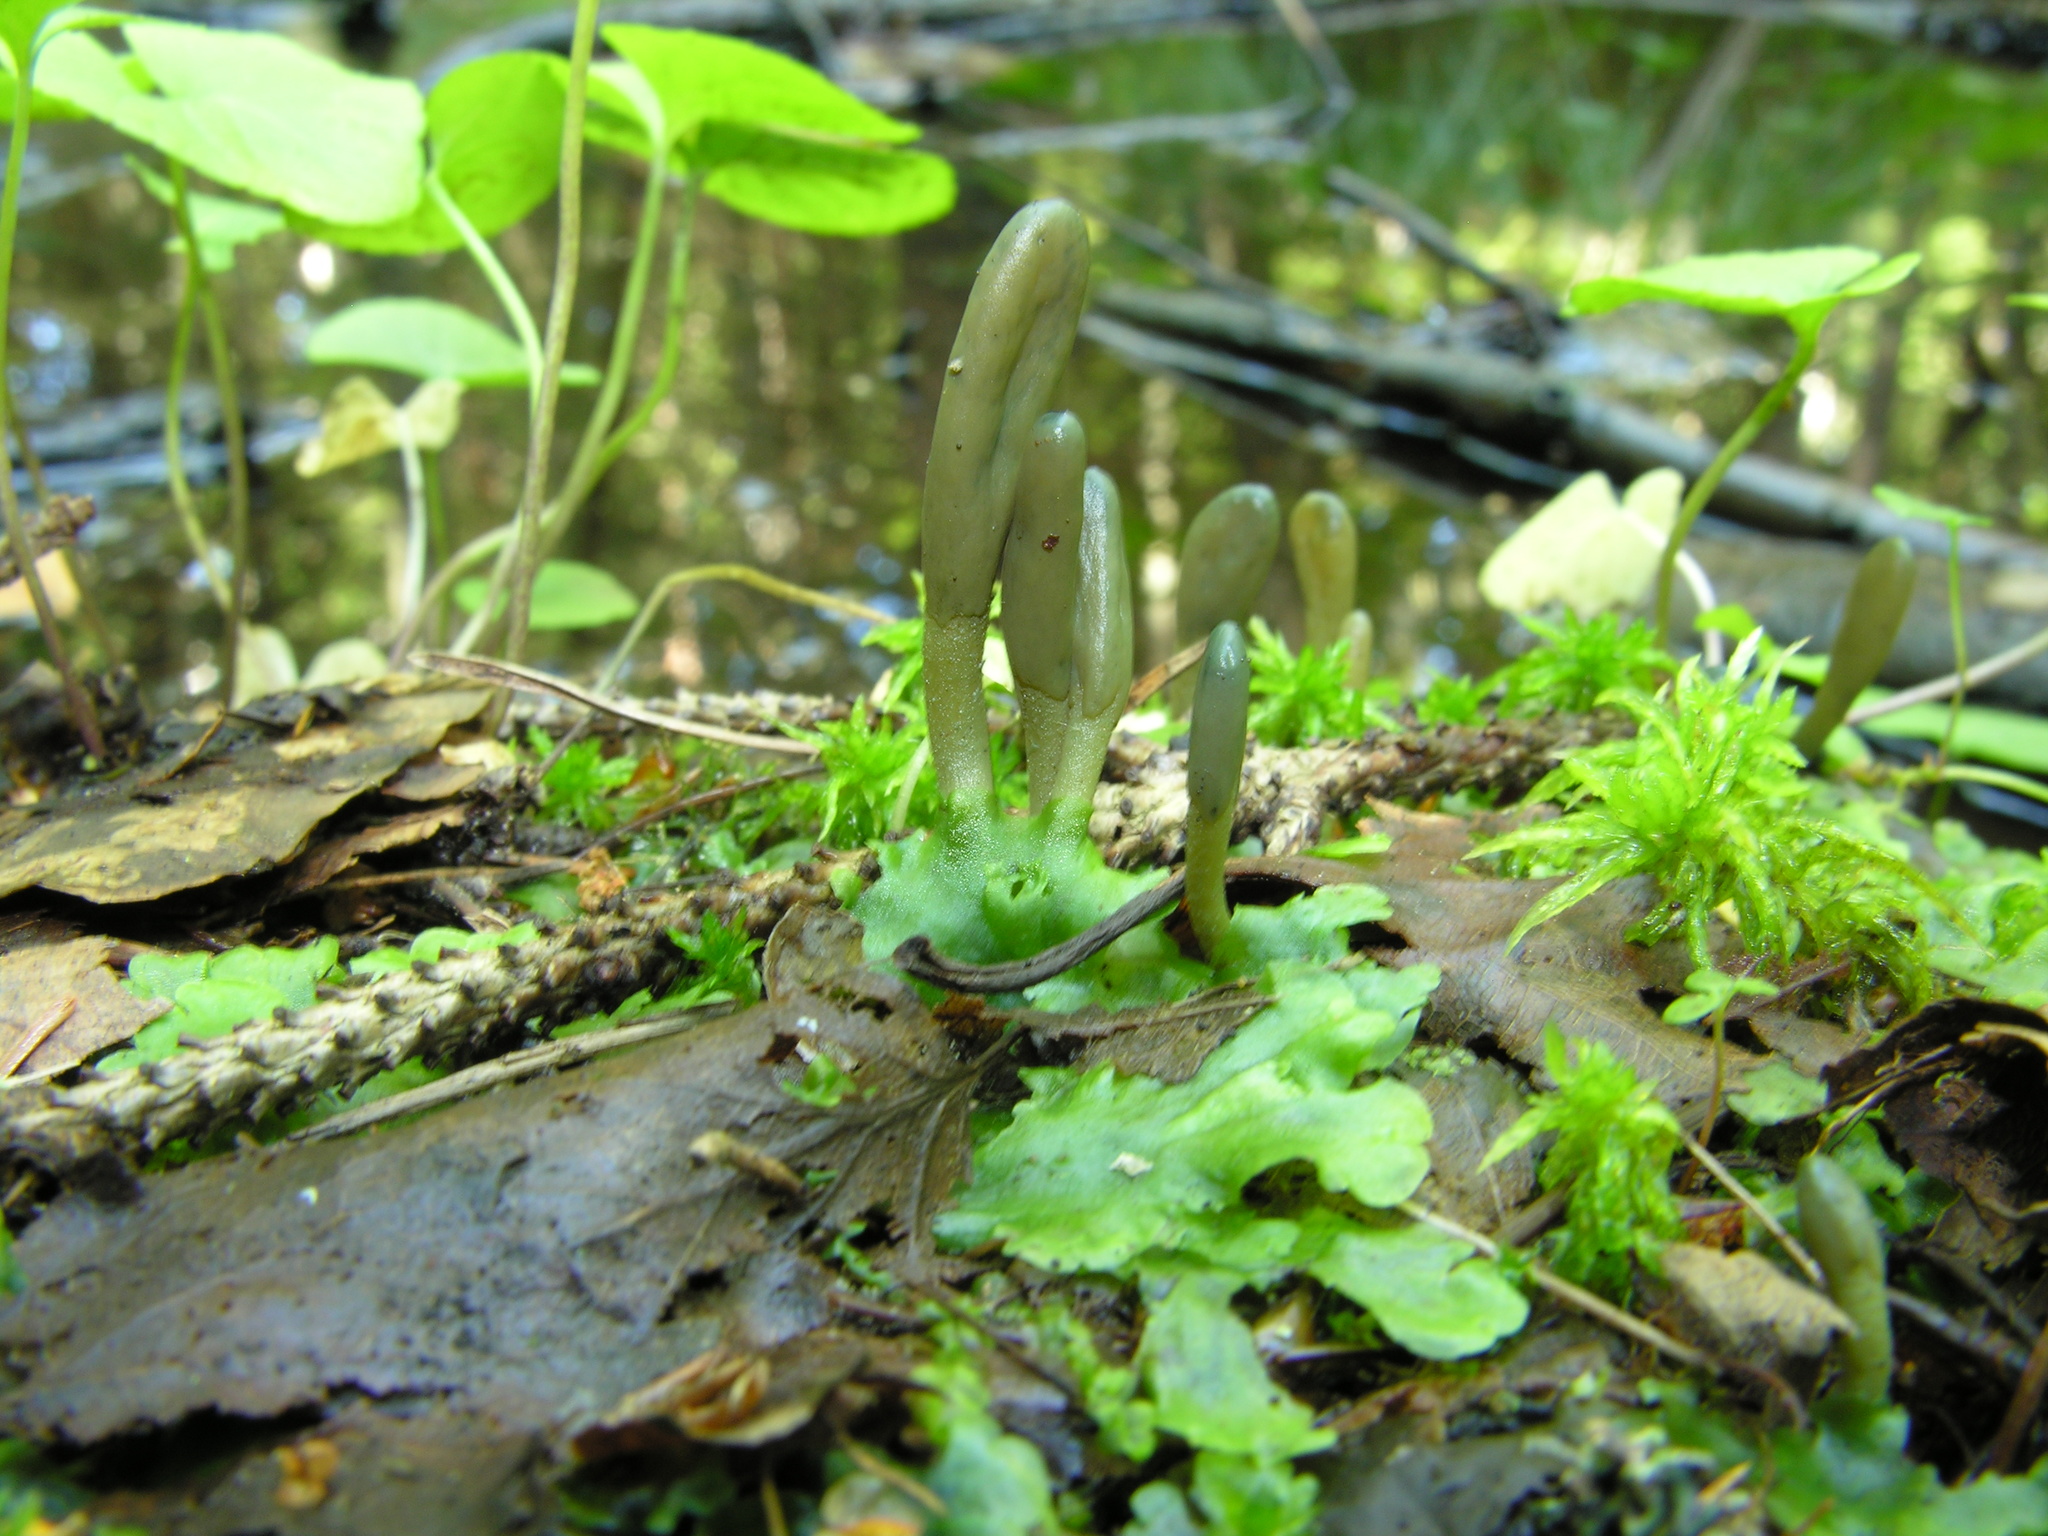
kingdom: Fungi
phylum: Ascomycota
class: Leotiomycetes
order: Leotiales
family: Leotiaceae
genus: Microglossum
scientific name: Microglossum viride
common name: Green earthtongue
